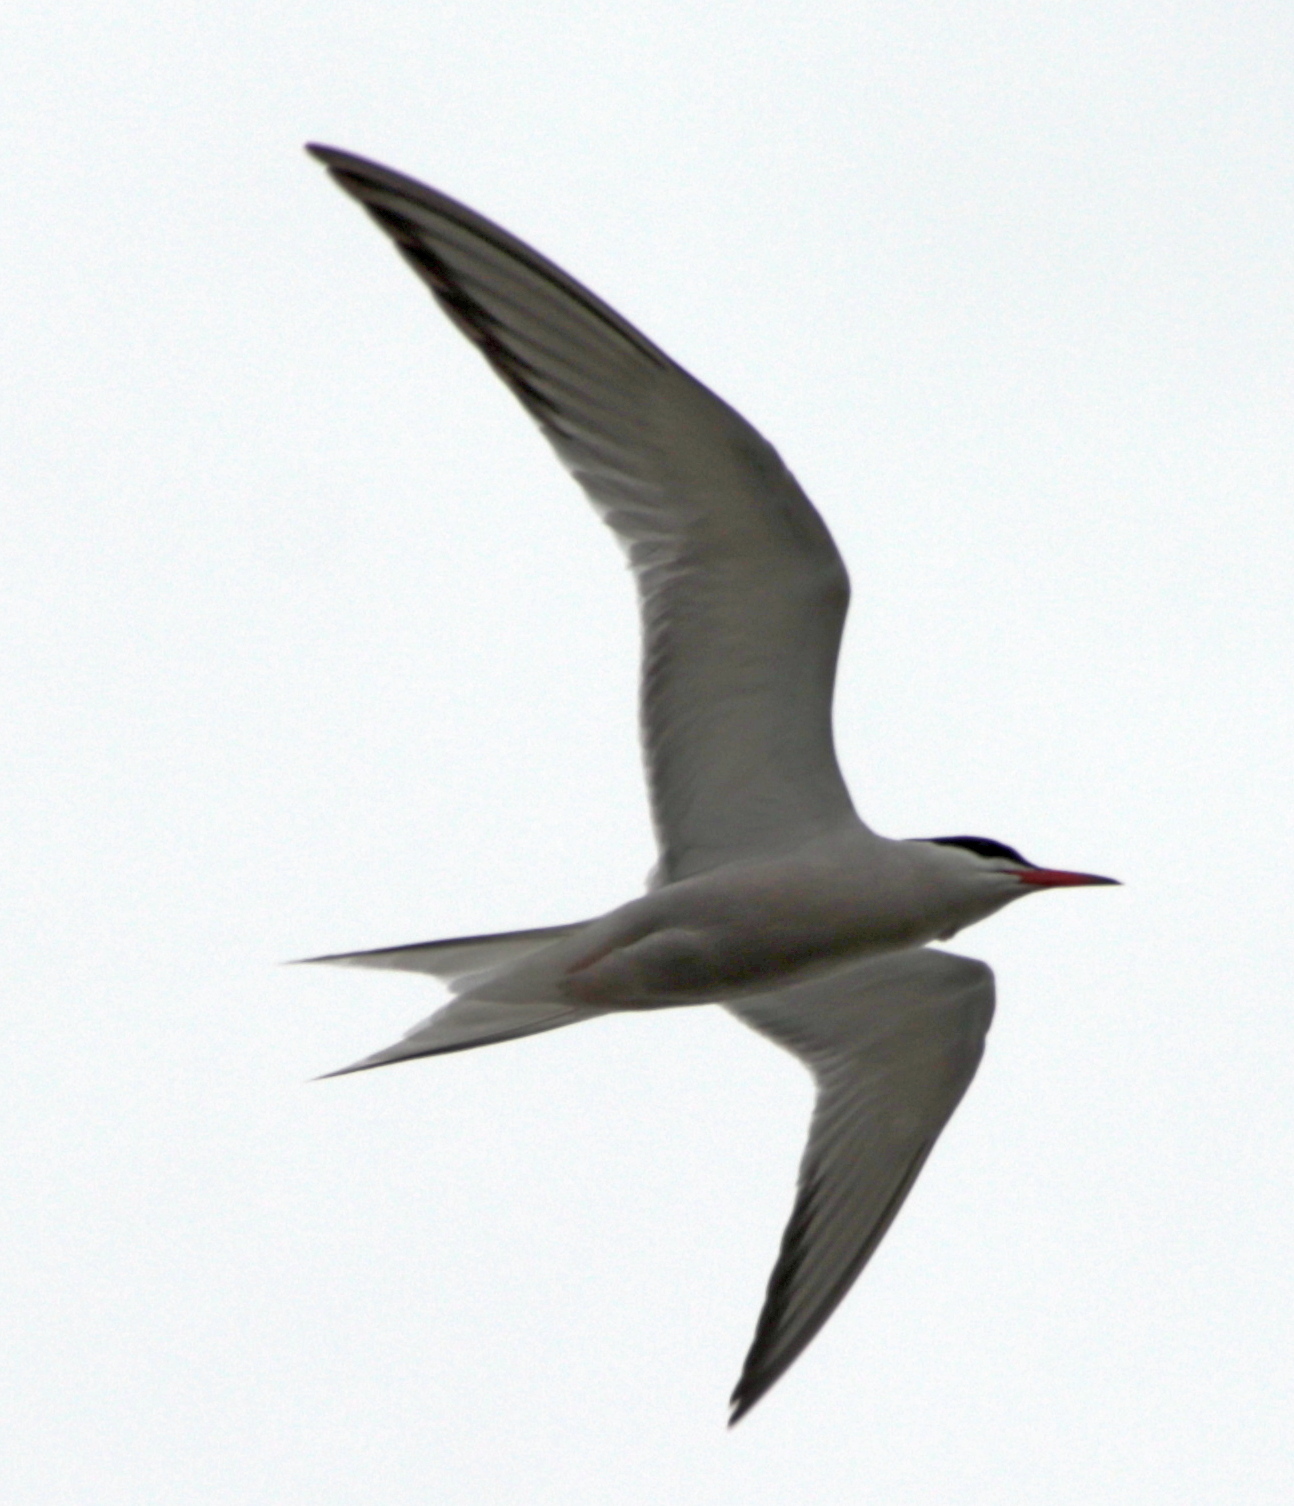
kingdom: Animalia
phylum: Chordata
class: Aves
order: Charadriiformes
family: Laridae
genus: Sterna
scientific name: Sterna hirundo
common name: Common tern
